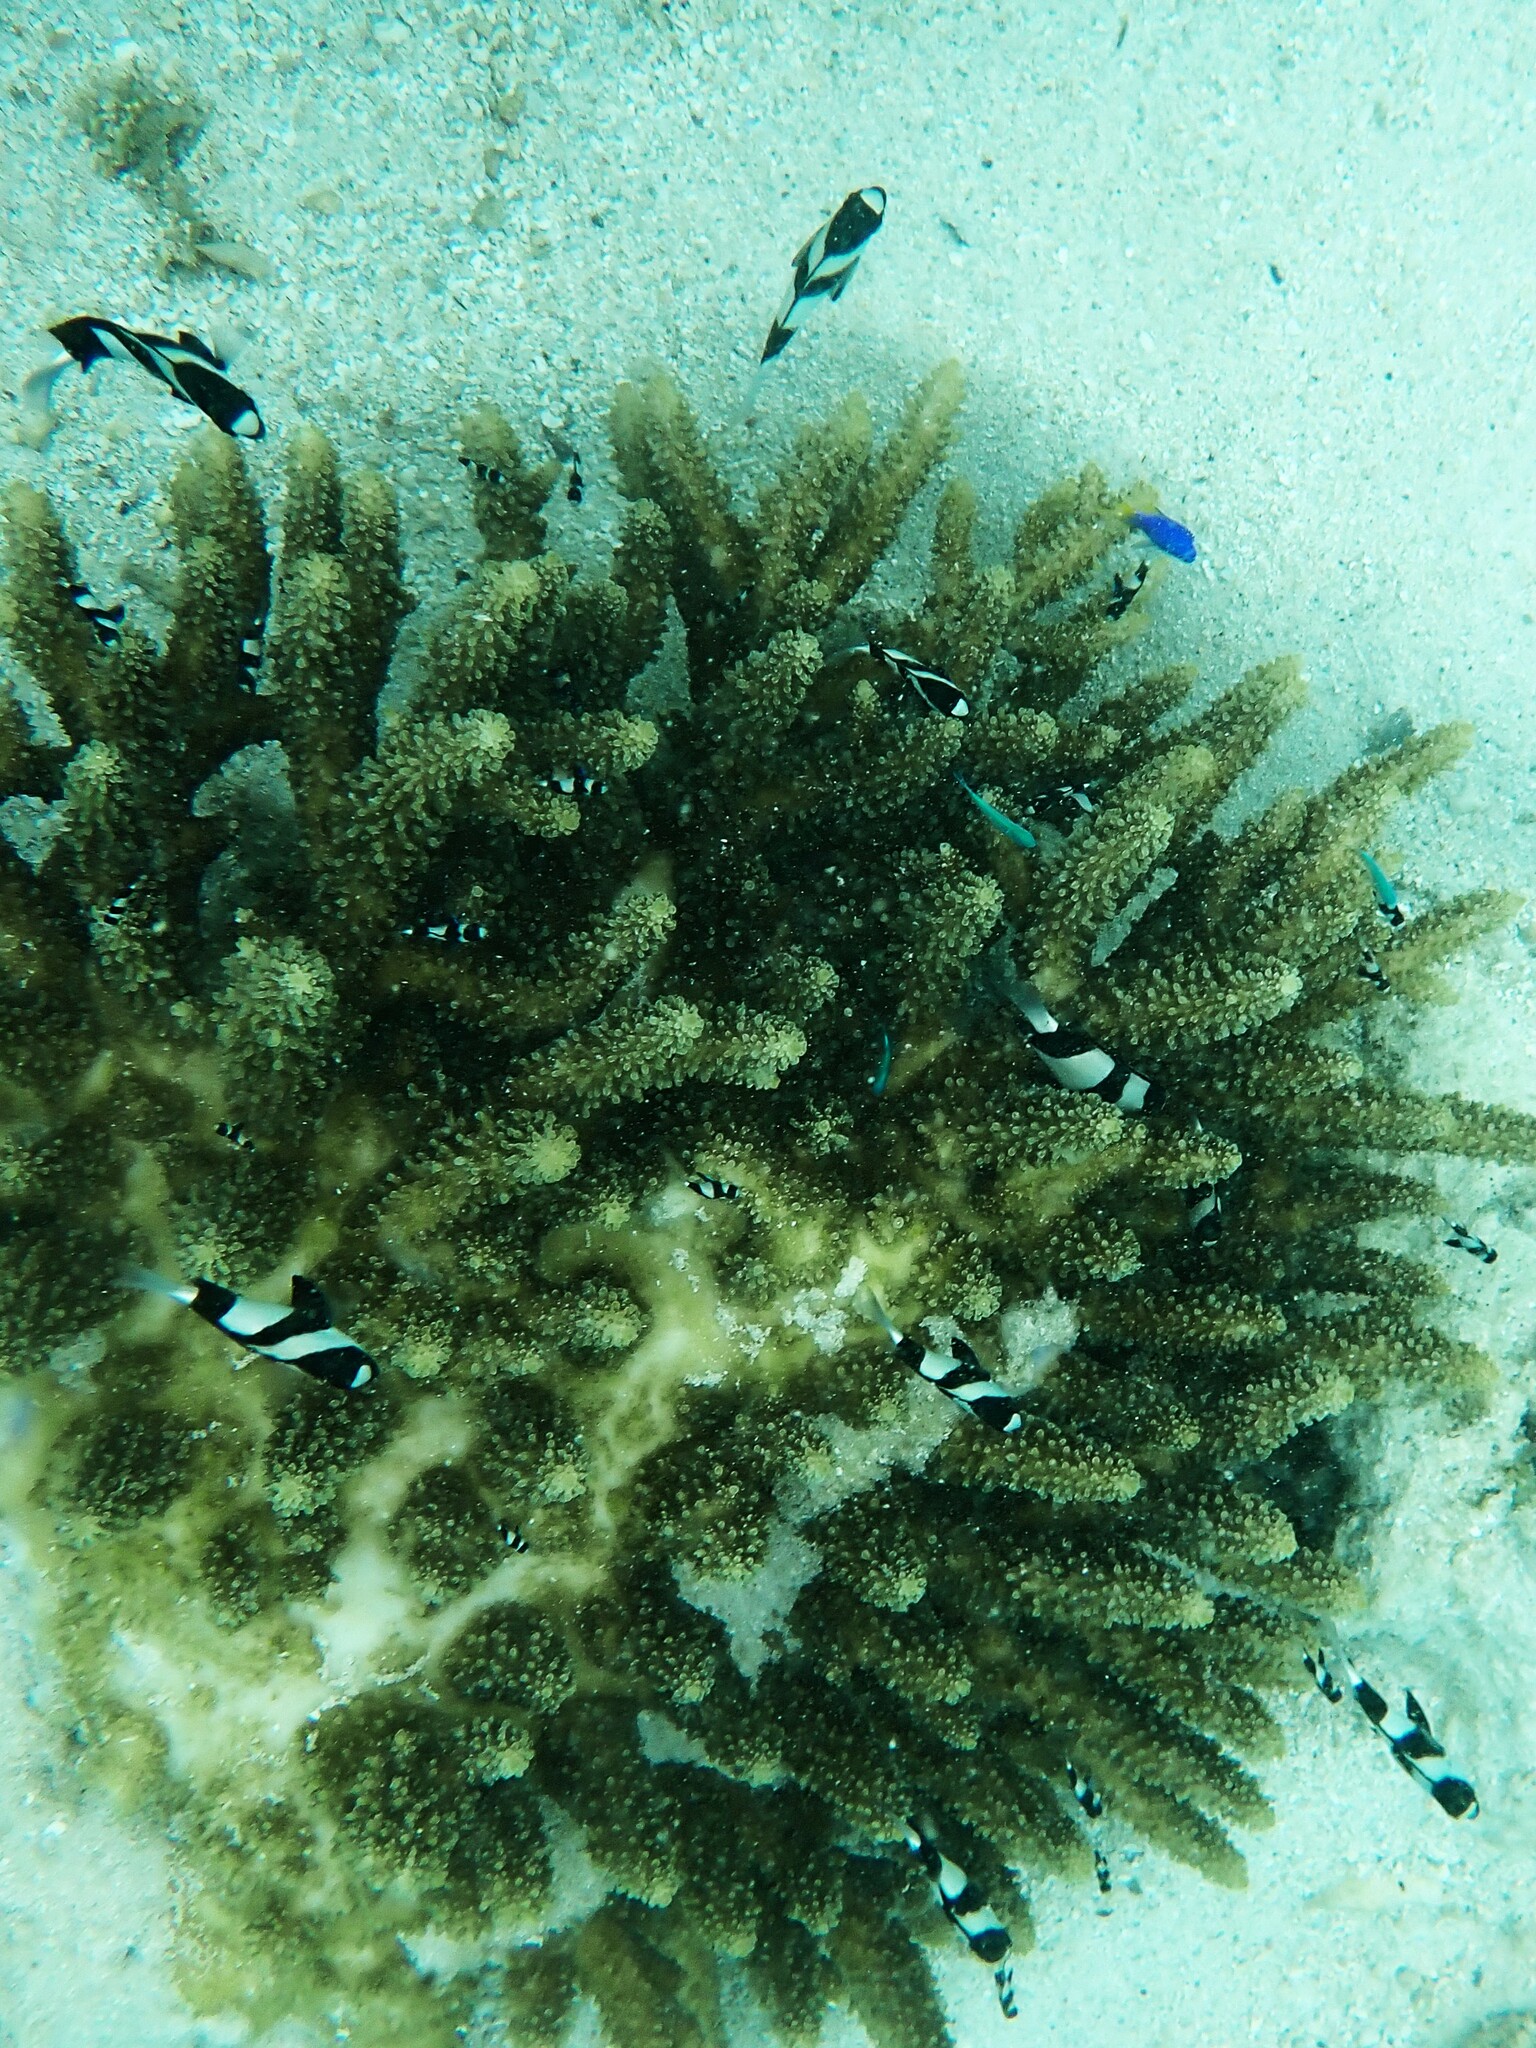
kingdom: Animalia
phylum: Chordata
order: Perciformes
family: Pomacentridae
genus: Dascyllus
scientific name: Dascyllus aruanus
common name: Humbug dascyllus
